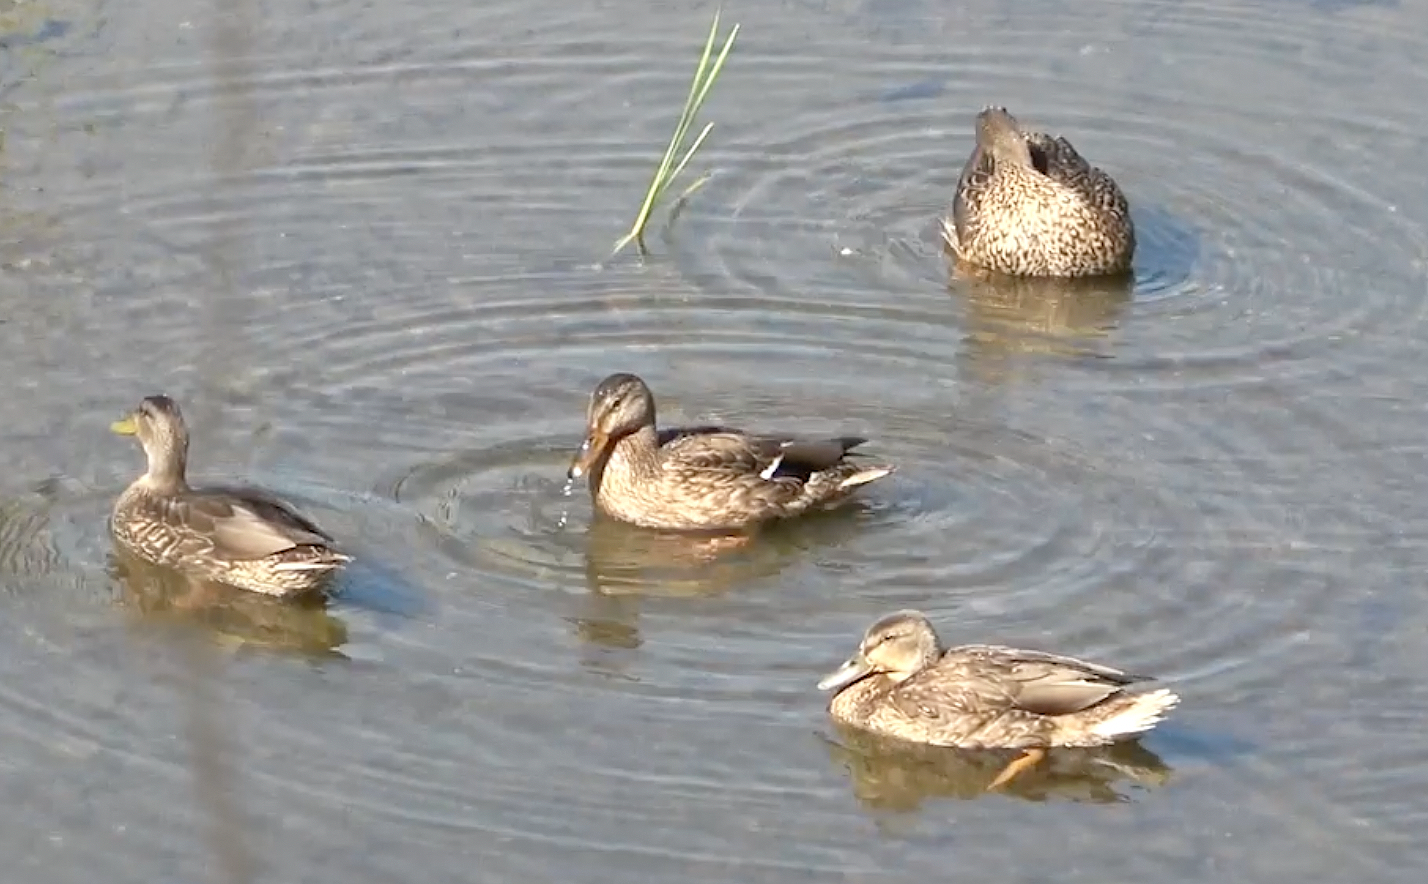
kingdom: Animalia
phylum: Chordata
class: Aves
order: Anseriformes
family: Anatidae
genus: Anas
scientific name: Anas platyrhynchos
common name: Mallard
